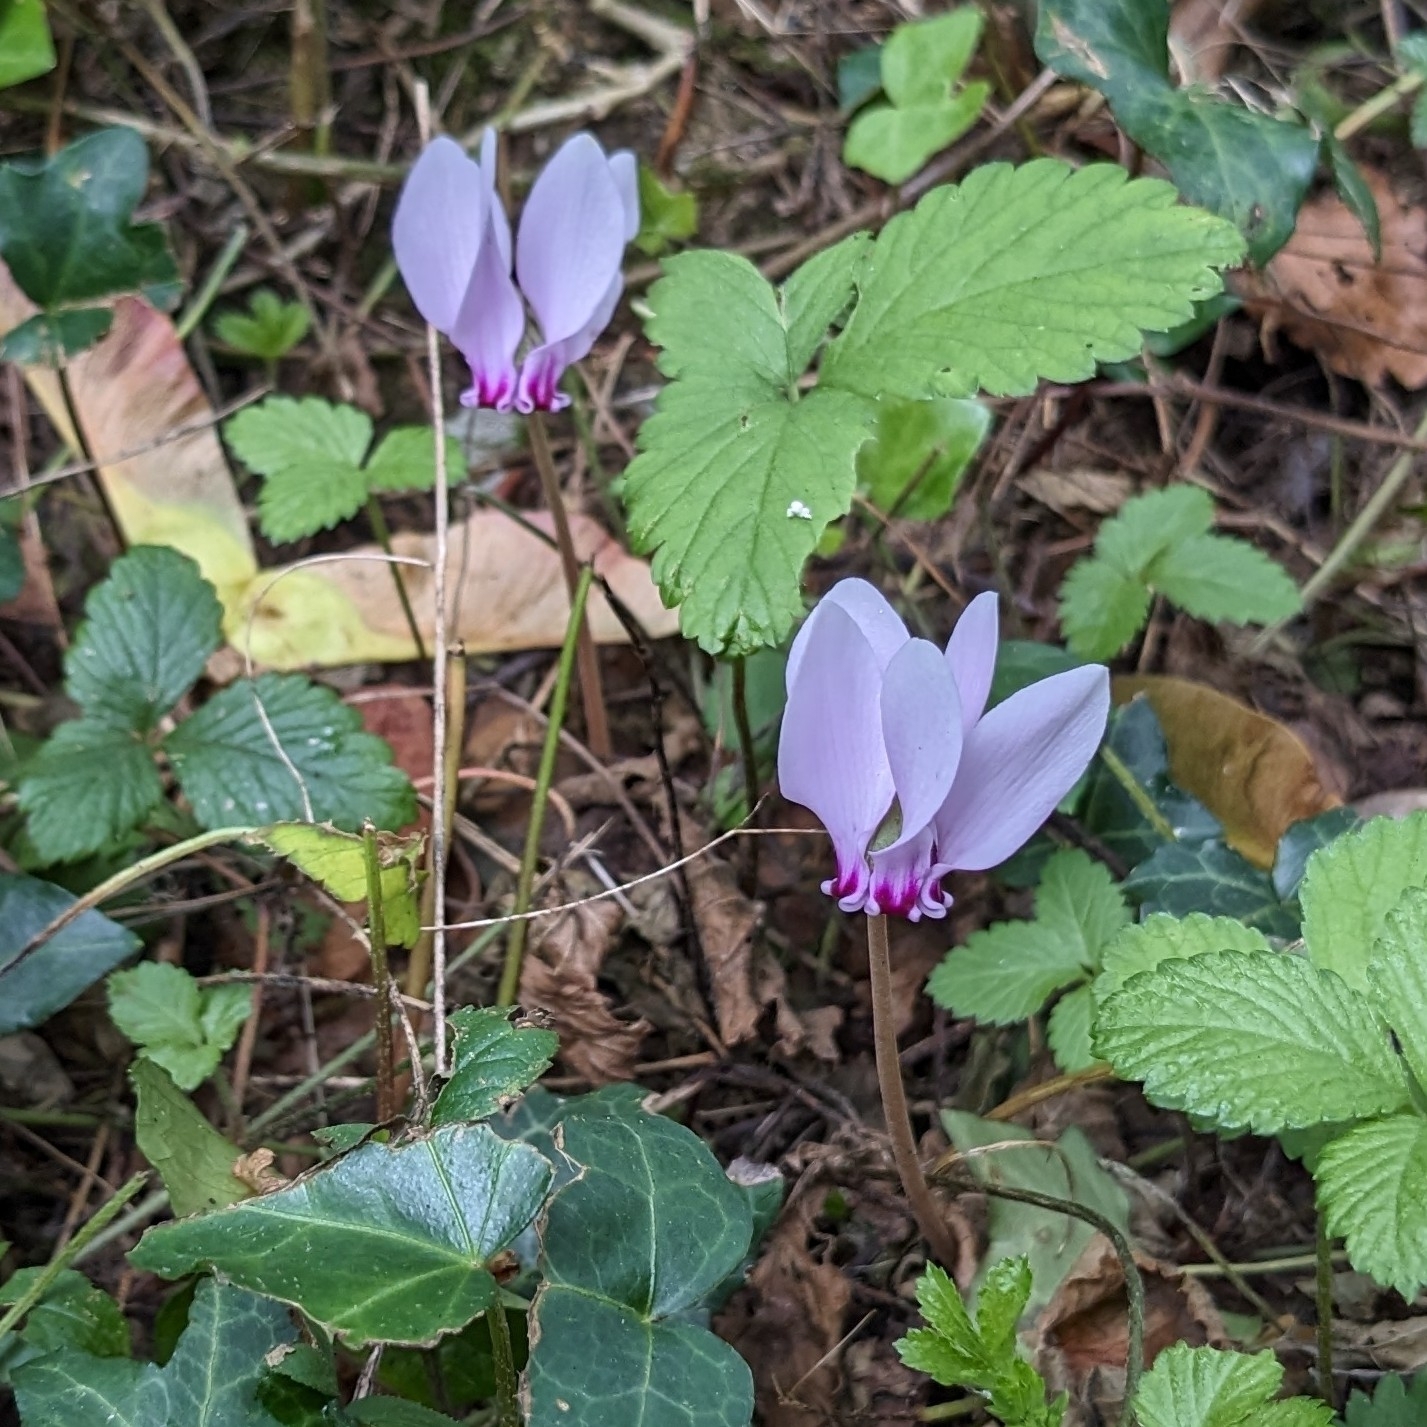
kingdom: Plantae
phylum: Tracheophyta
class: Magnoliopsida
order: Ericales
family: Primulaceae
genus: Cyclamen
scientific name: Cyclamen hederifolium
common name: Sowbread
